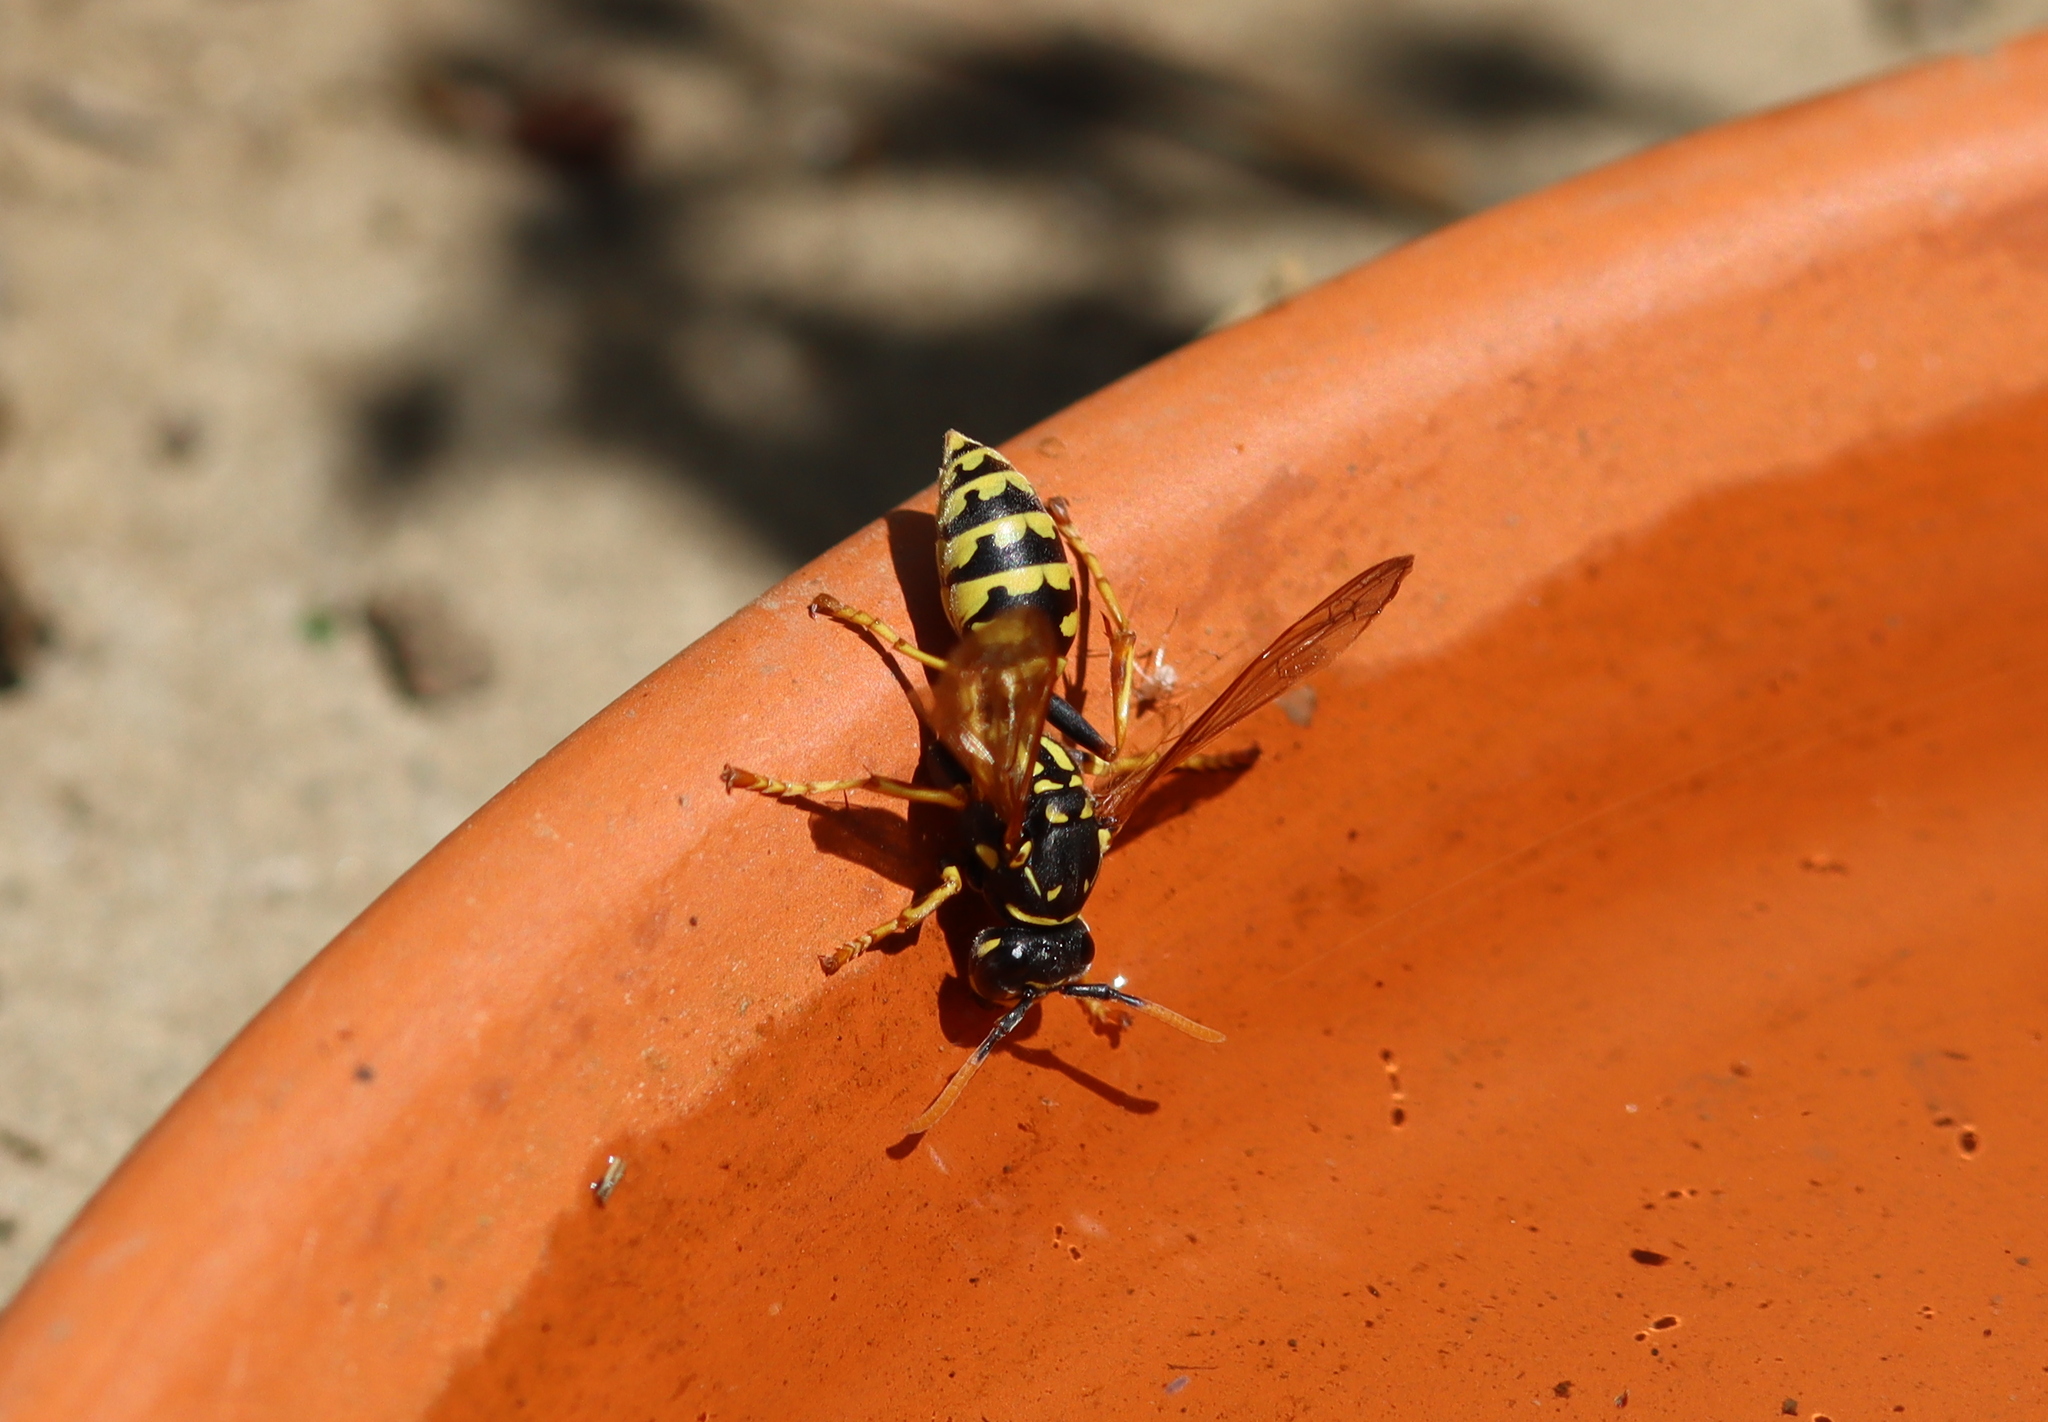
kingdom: Animalia
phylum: Arthropoda
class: Insecta
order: Hymenoptera
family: Eumenidae
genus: Polistes
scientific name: Polistes dominula
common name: Paper wasp
